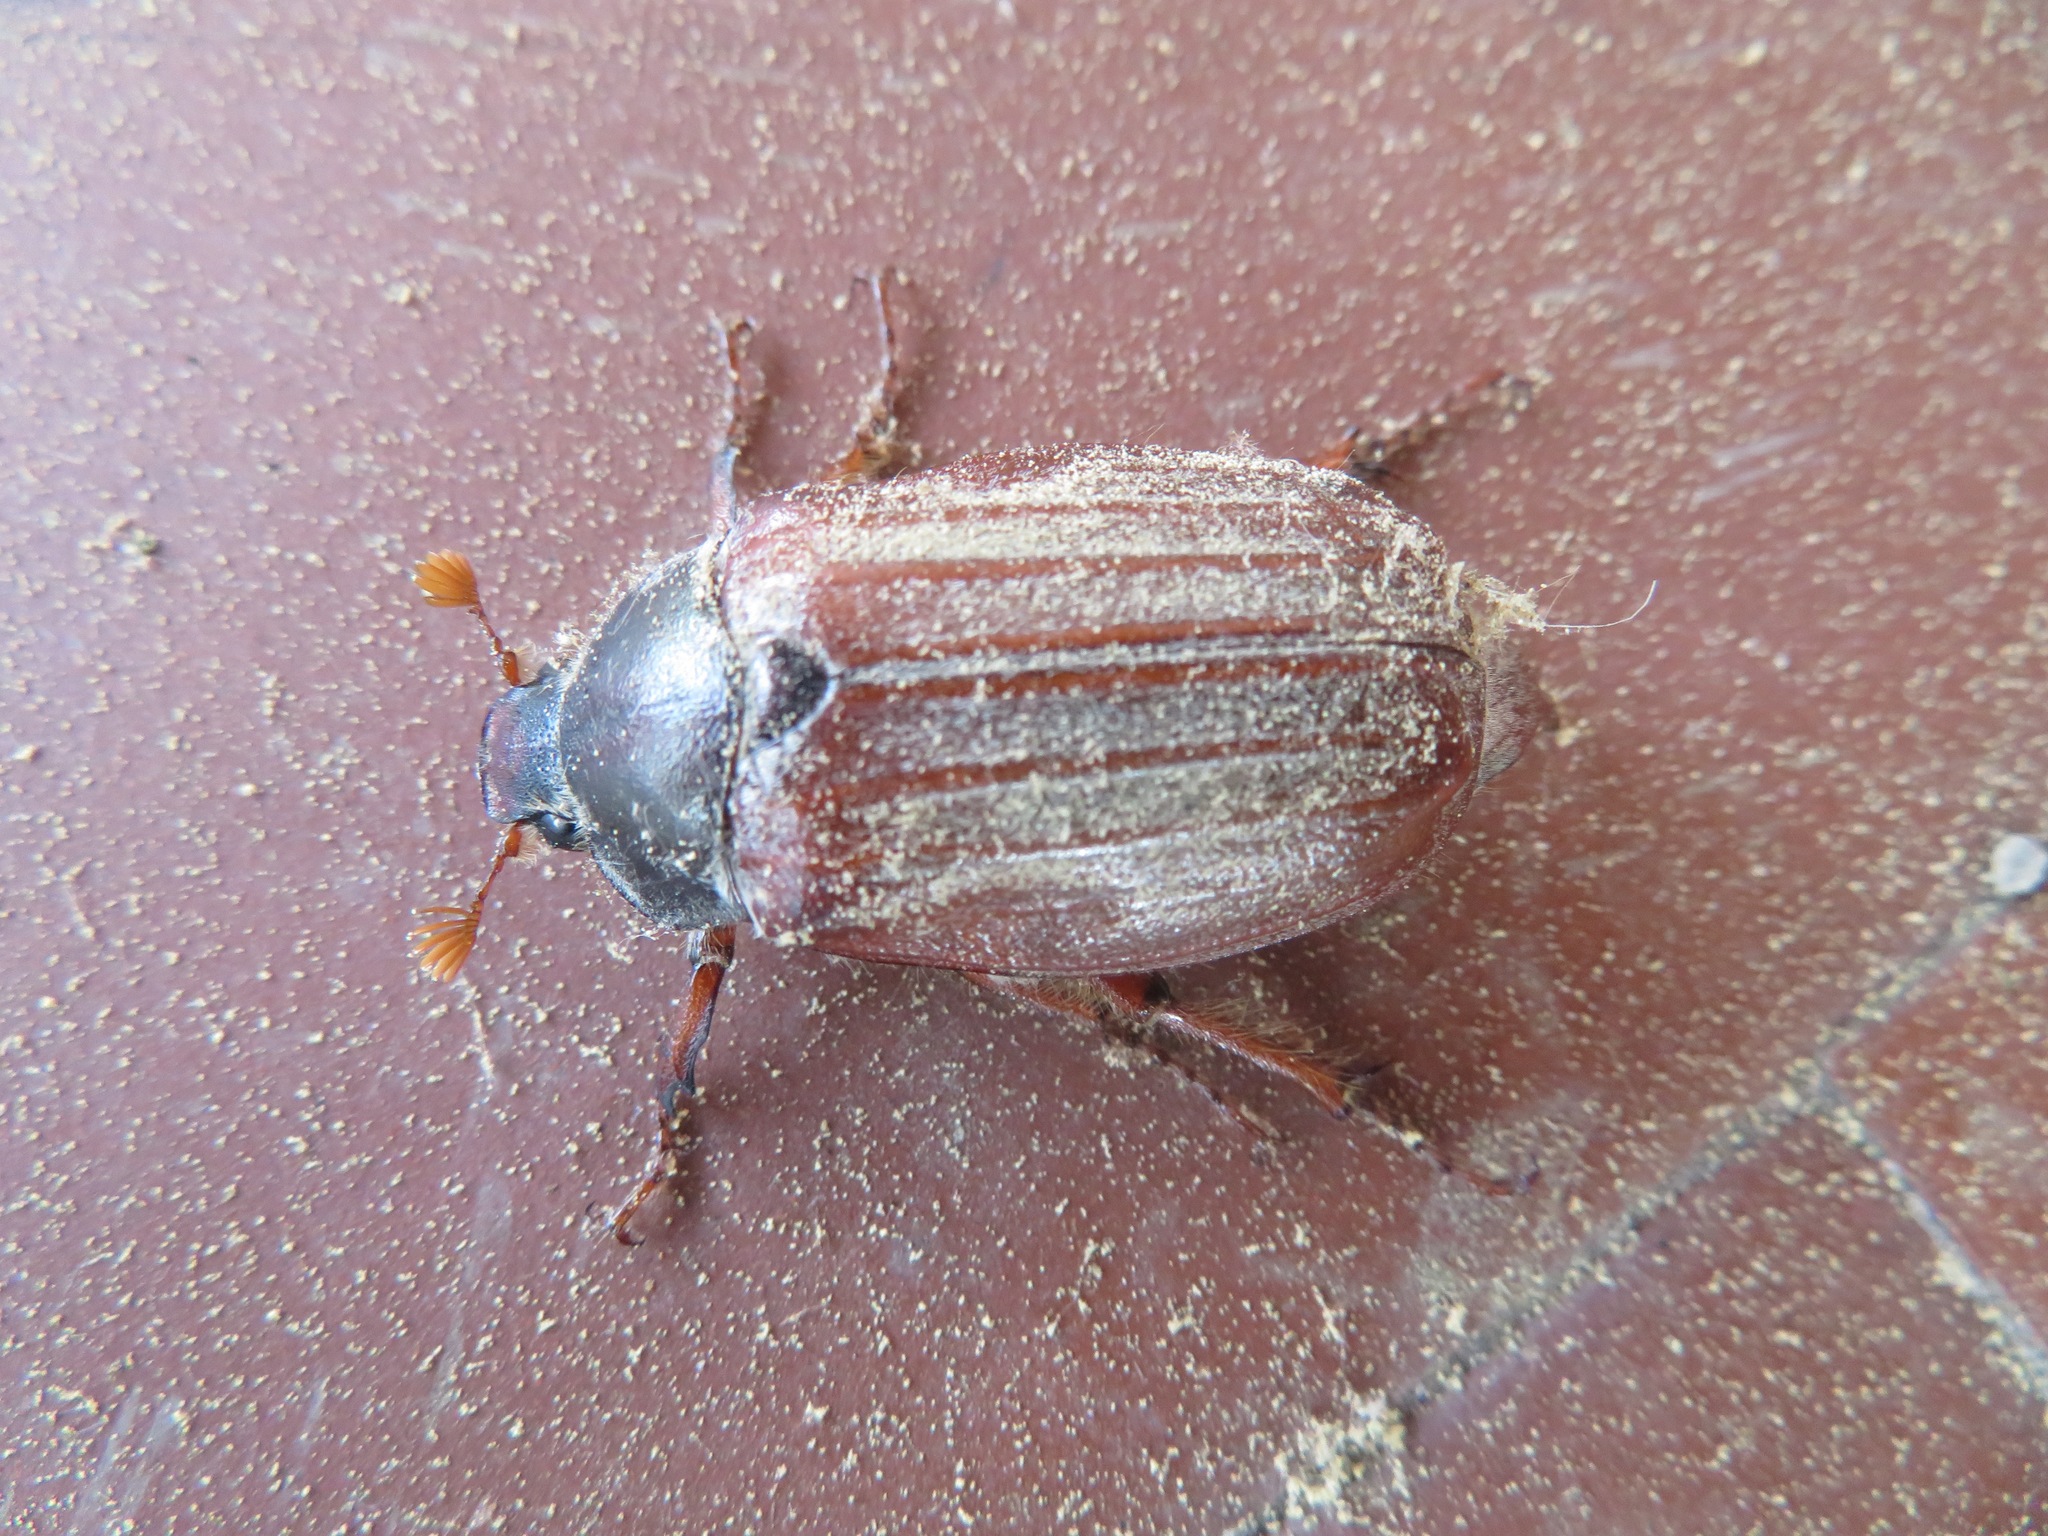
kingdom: Animalia
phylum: Arthropoda
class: Insecta
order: Coleoptera
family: Scarabaeidae
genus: Melolontha
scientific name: Melolontha melolontha
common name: Cockchafer maybeetle
